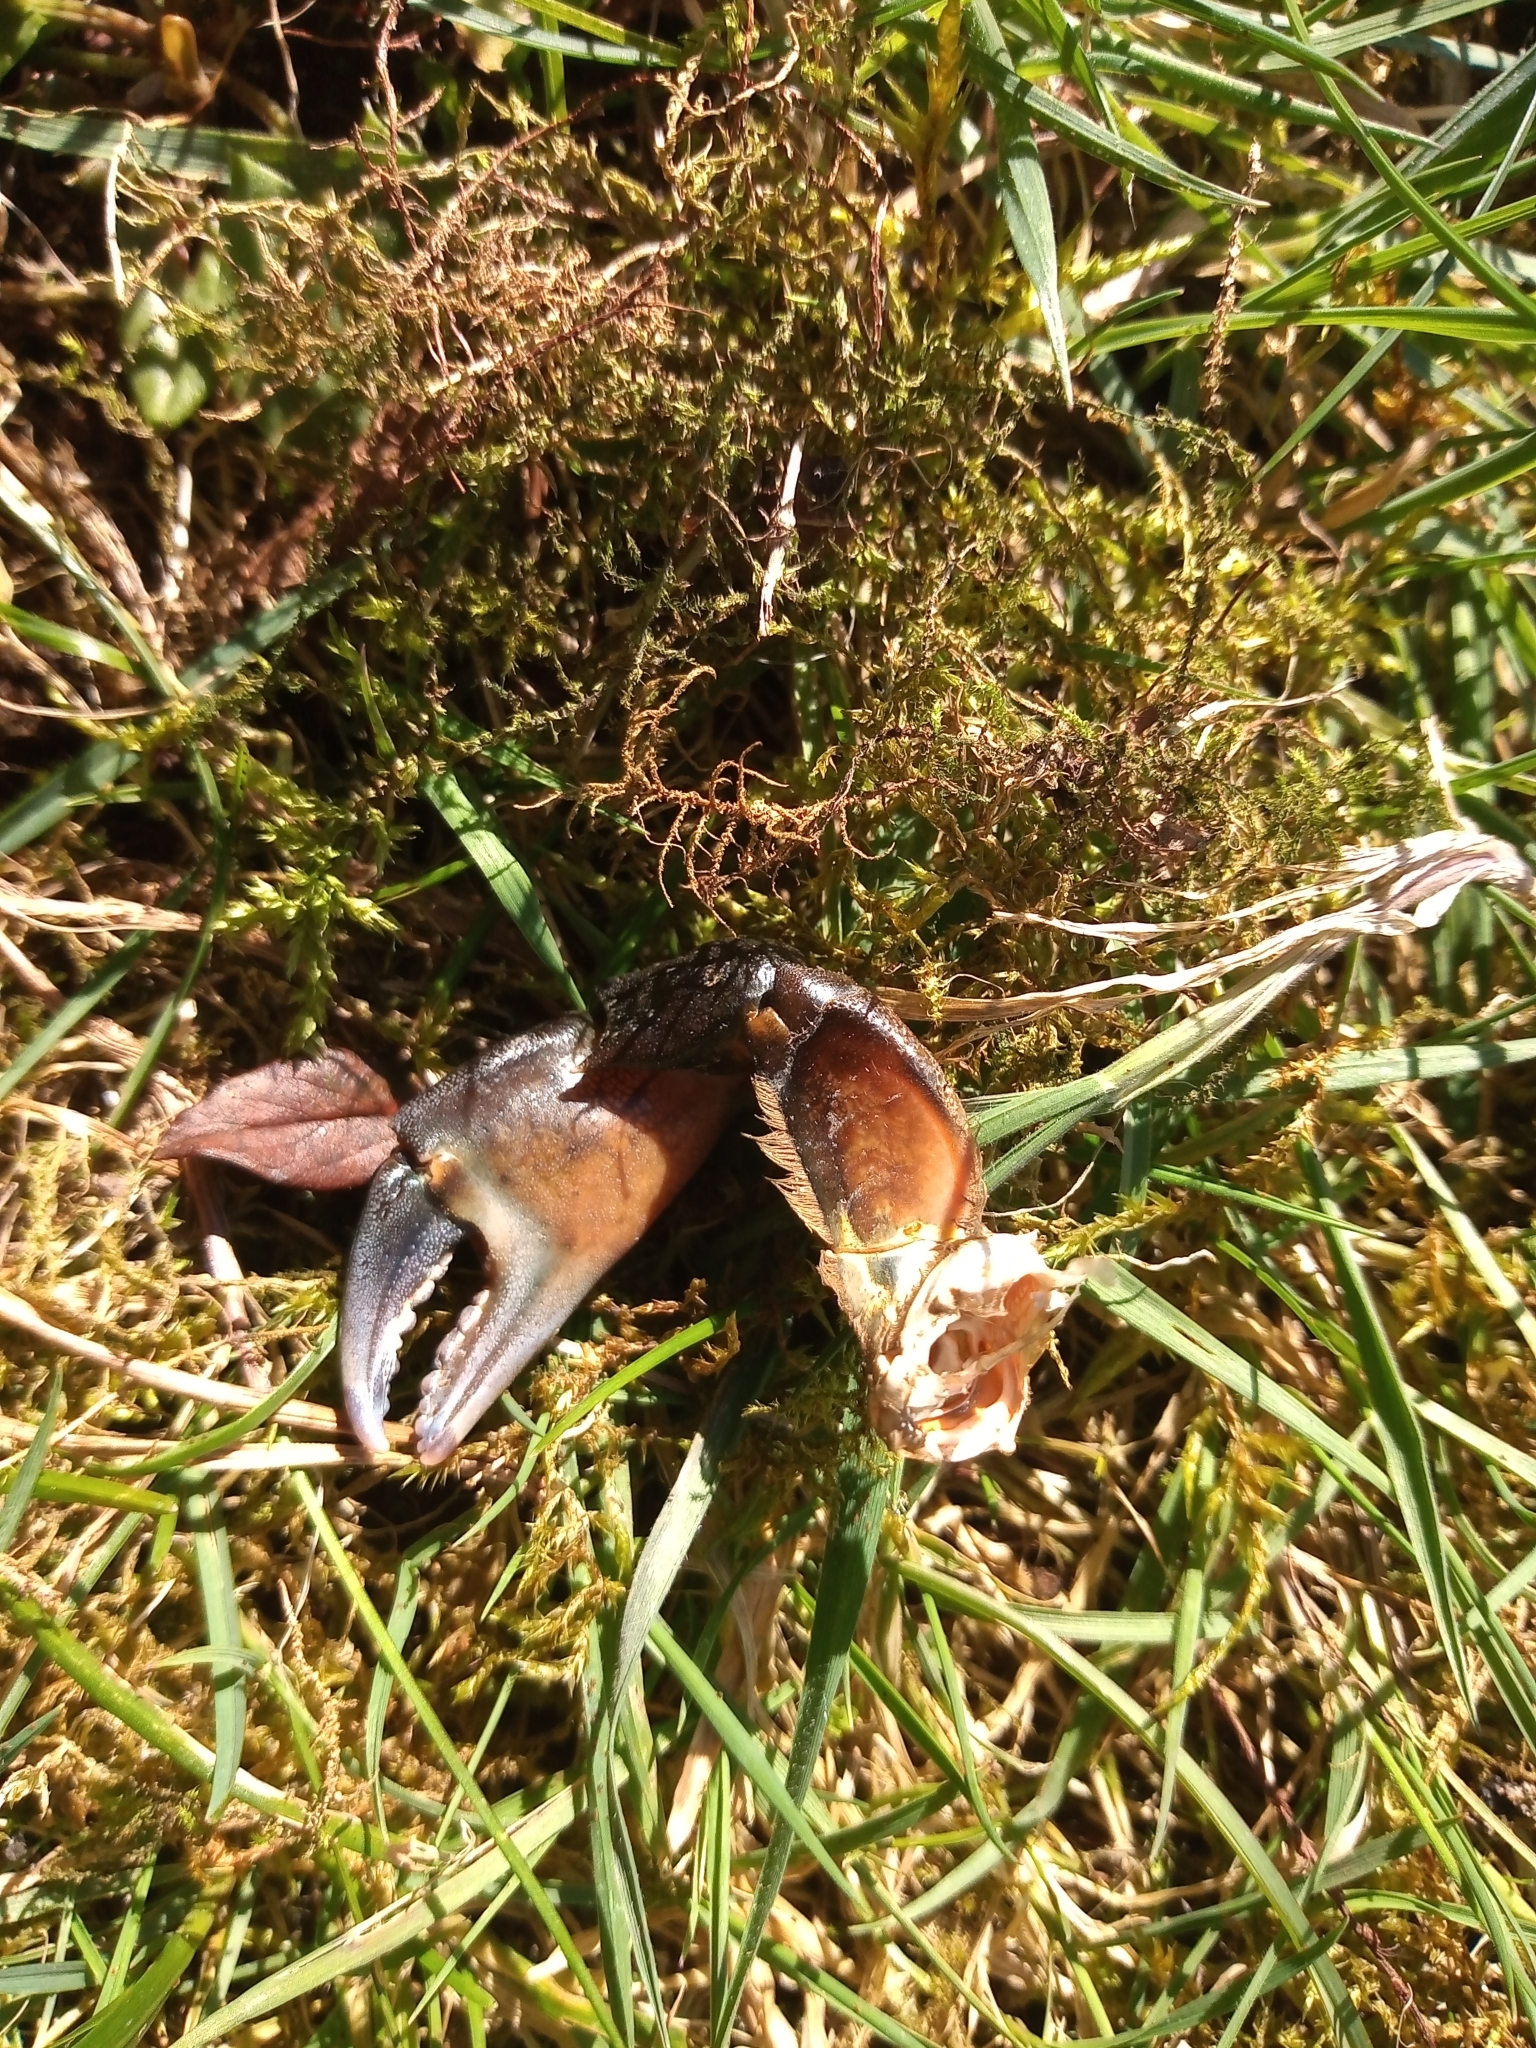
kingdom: Animalia
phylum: Arthropoda
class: Malacostraca
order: Decapoda
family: Carcinidae
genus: Carcinus
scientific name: Carcinus maenas
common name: European green crab
